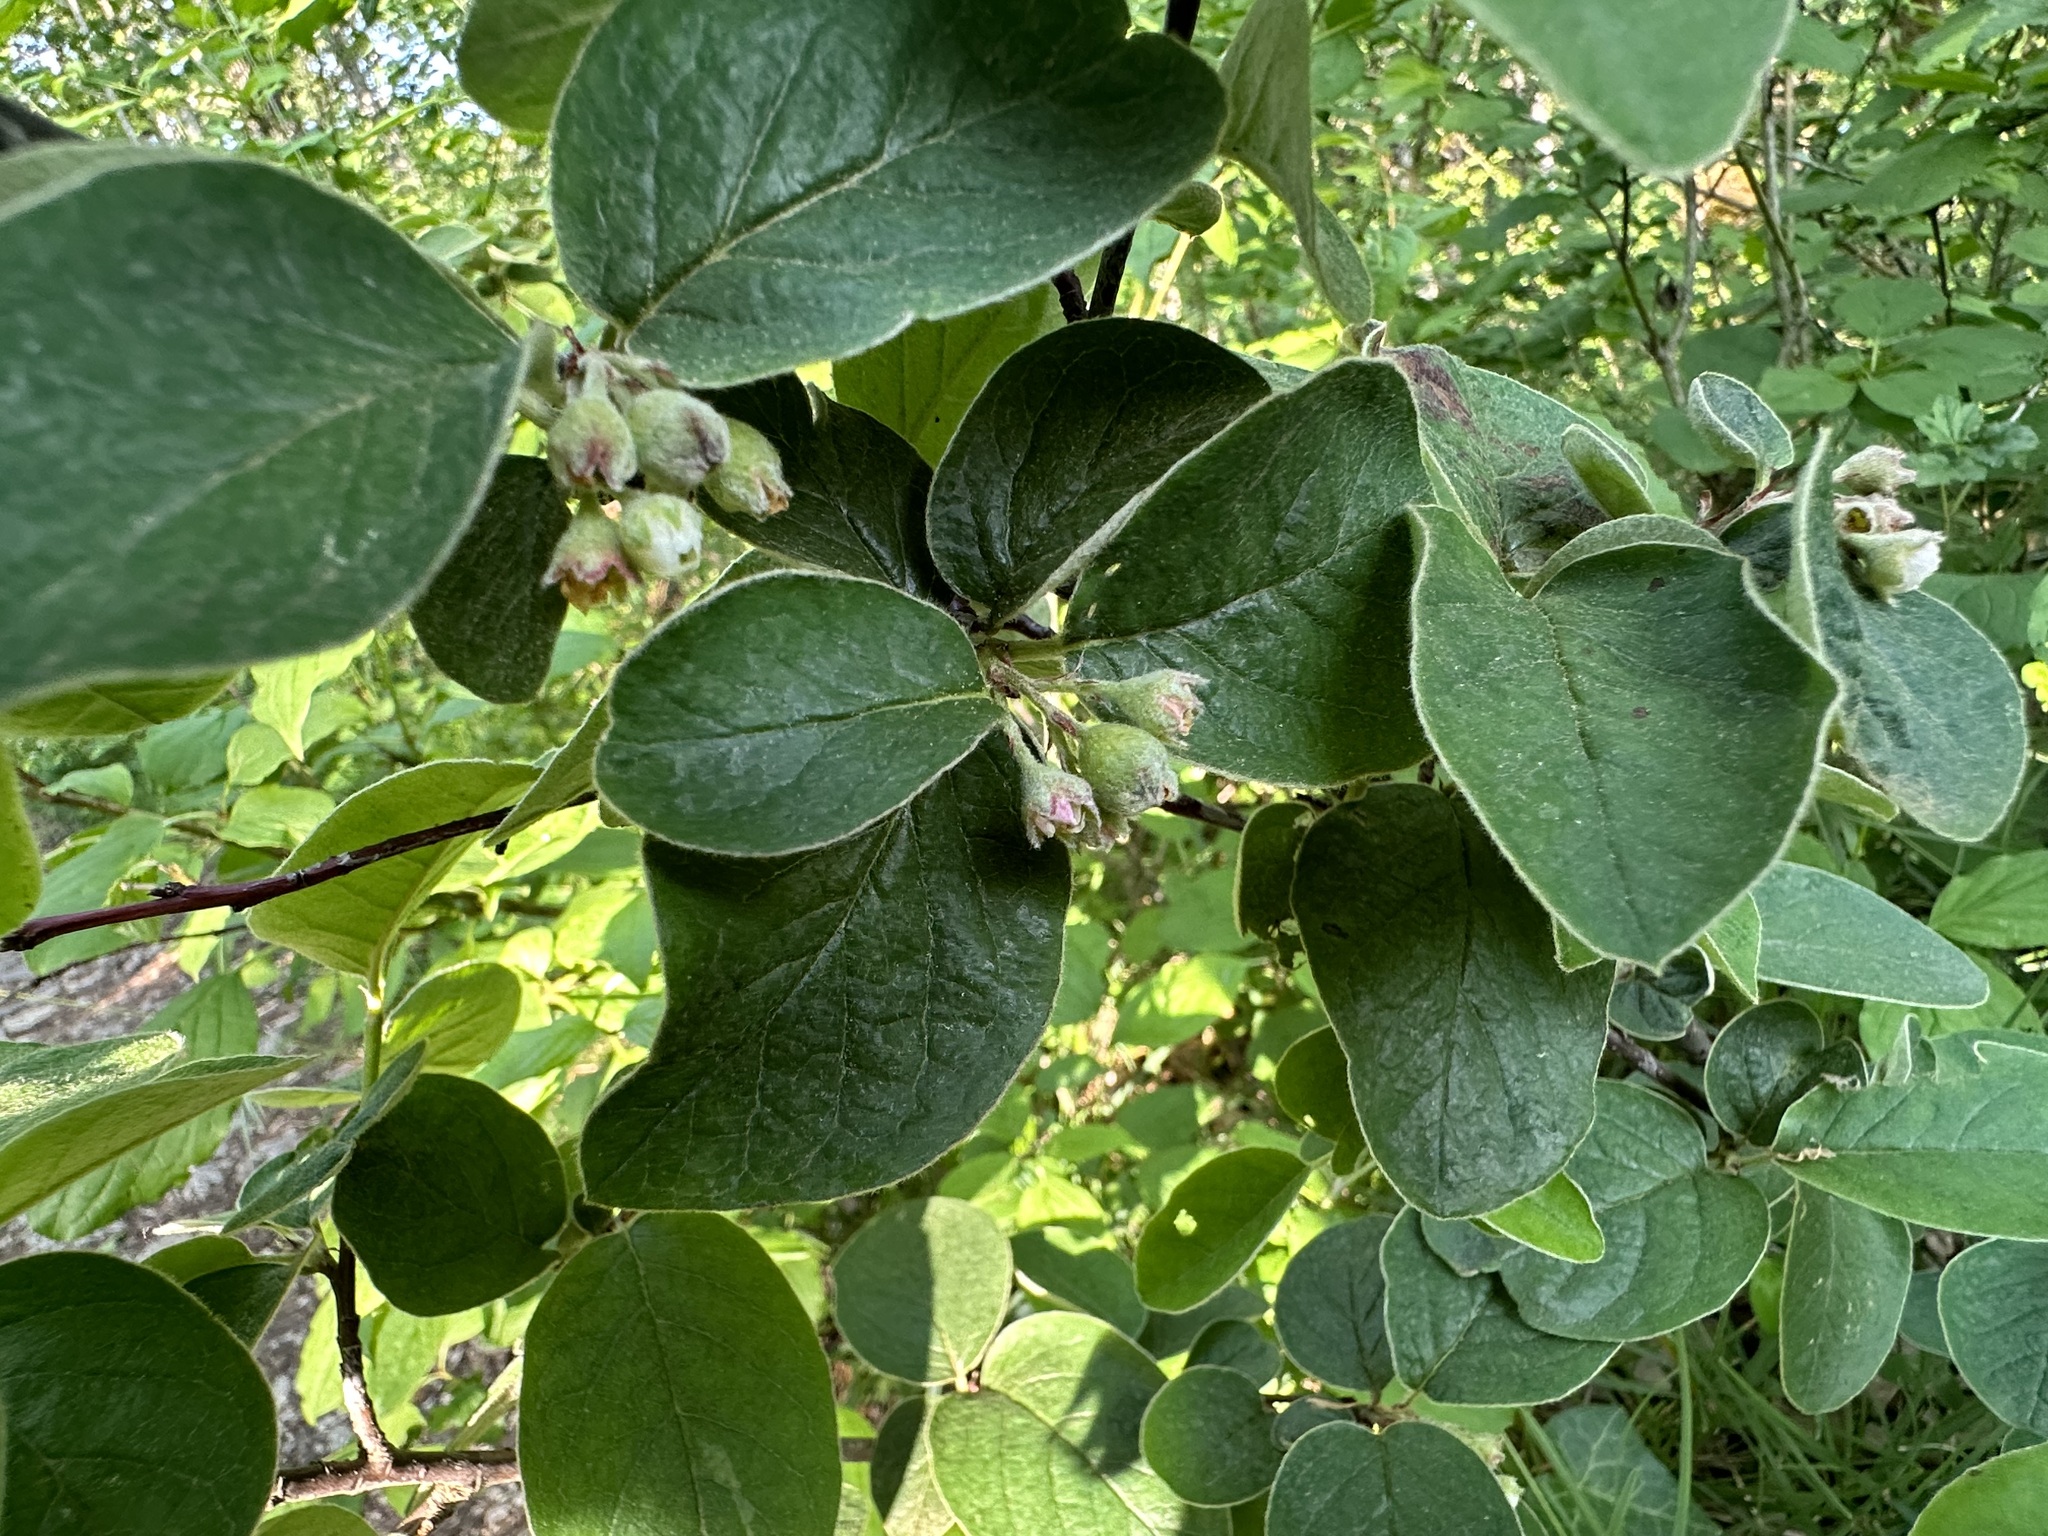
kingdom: Plantae
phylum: Tracheophyta
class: Magnoliopsida
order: Rosales
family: Rosaceae
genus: Cotoneaster
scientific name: Cotoneaster tomentosus
